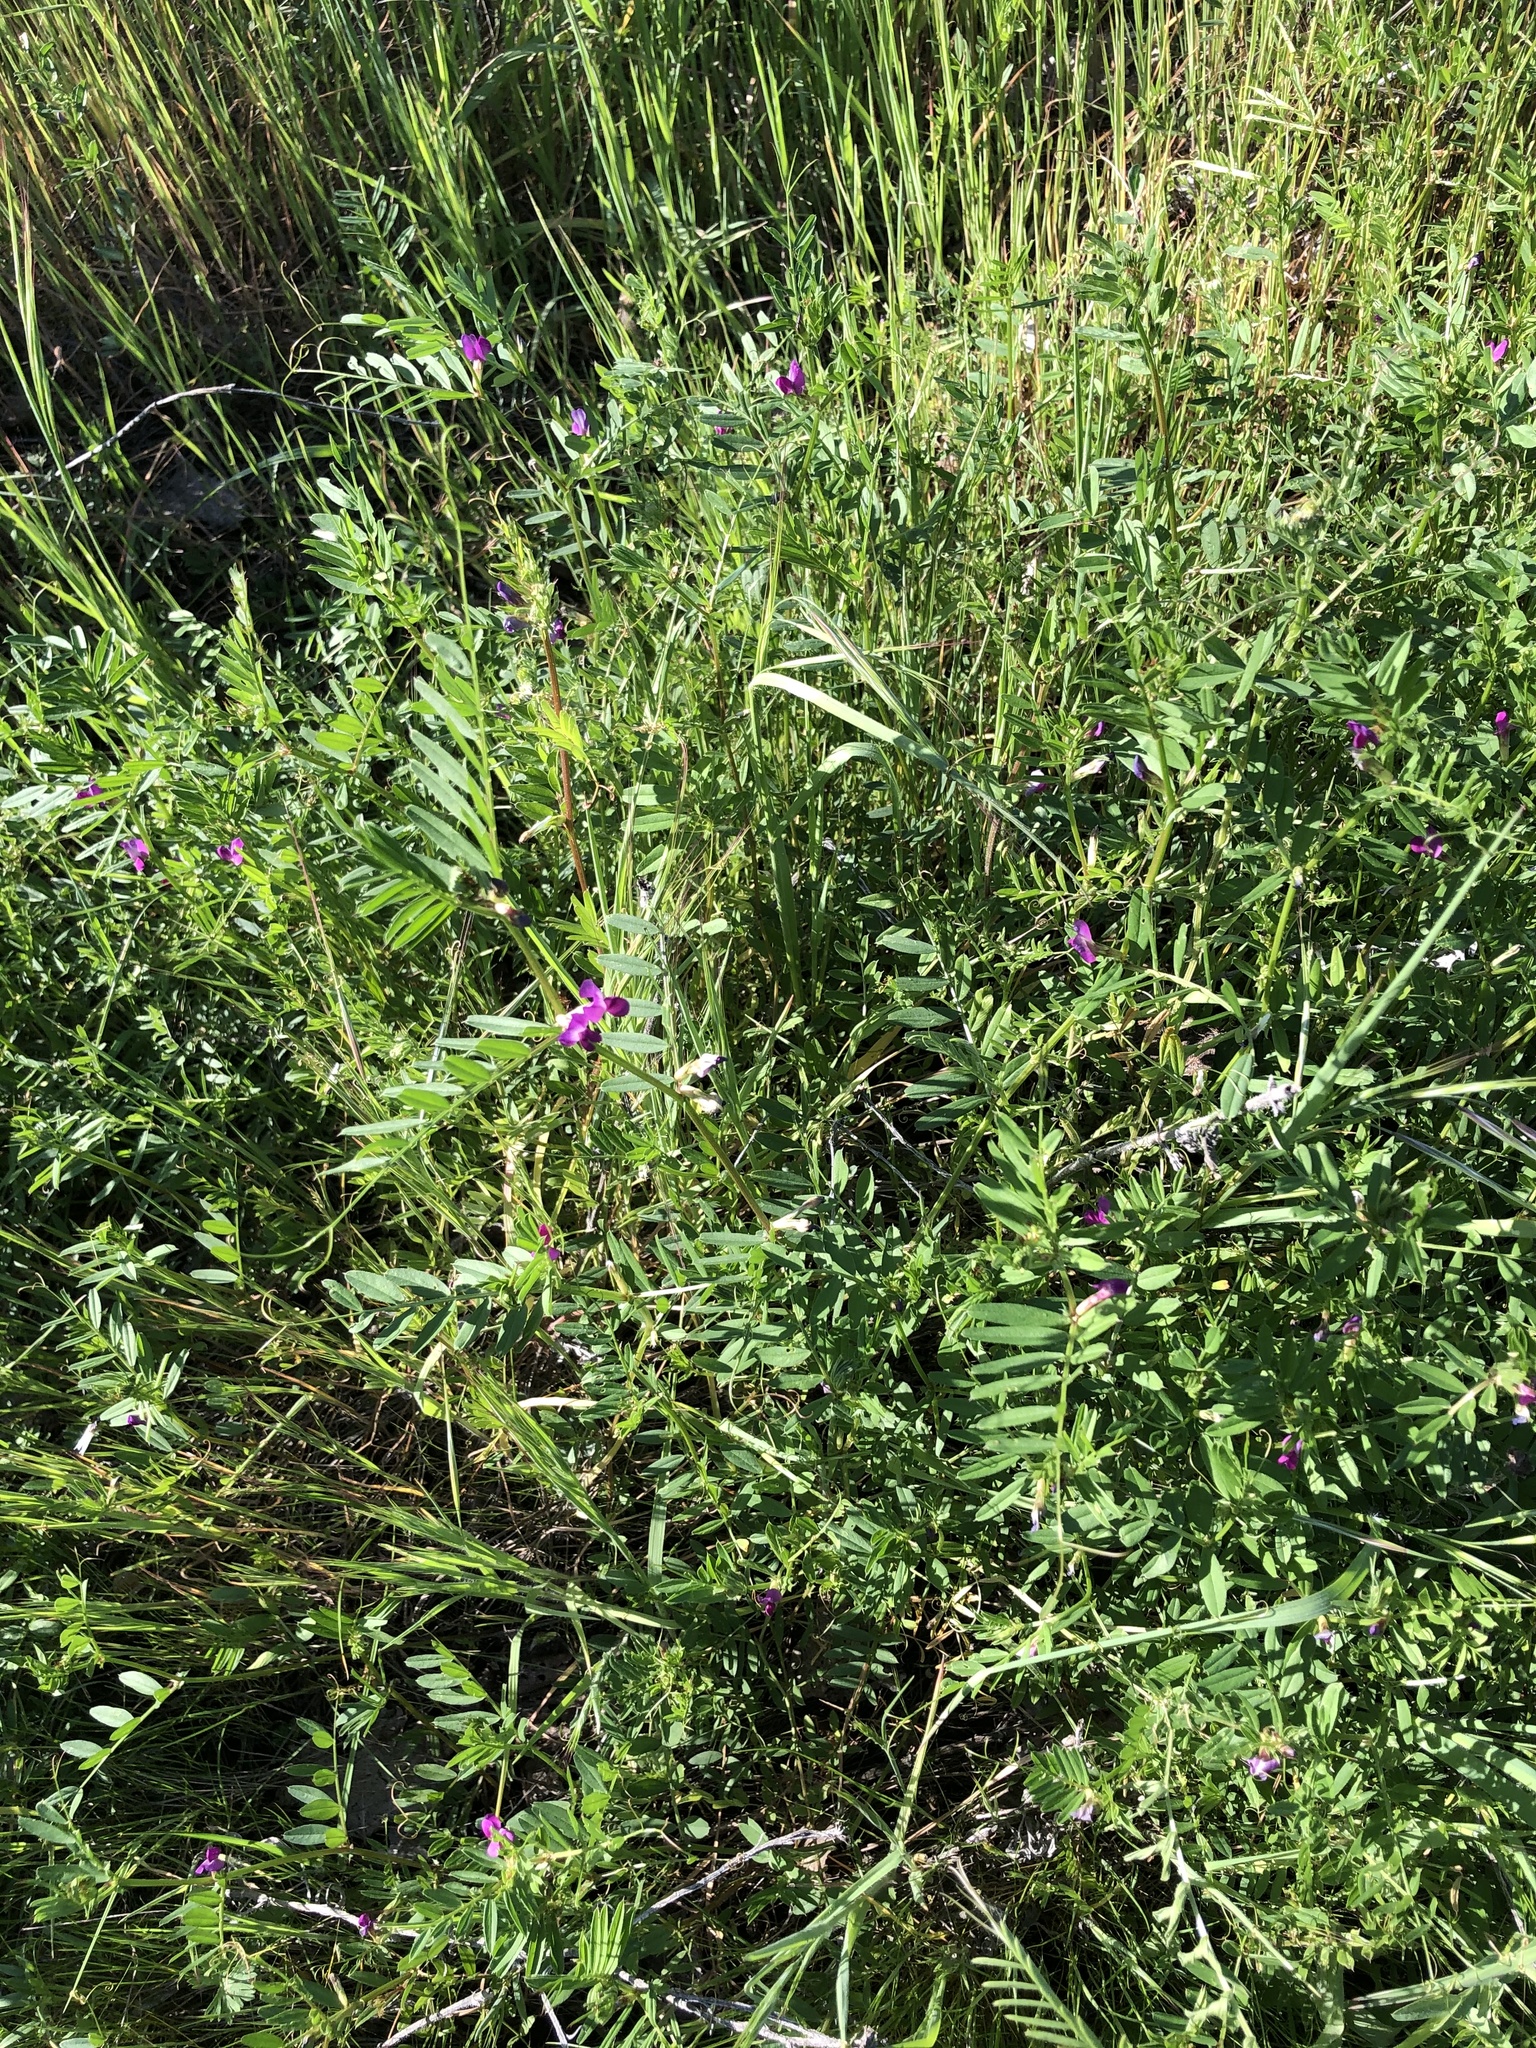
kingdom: Plantae
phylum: Tracheophyta
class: Magnoliopsida
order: Fabales
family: Fabaceae
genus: Vicia
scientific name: Vicia sativa
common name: Garden vetch
